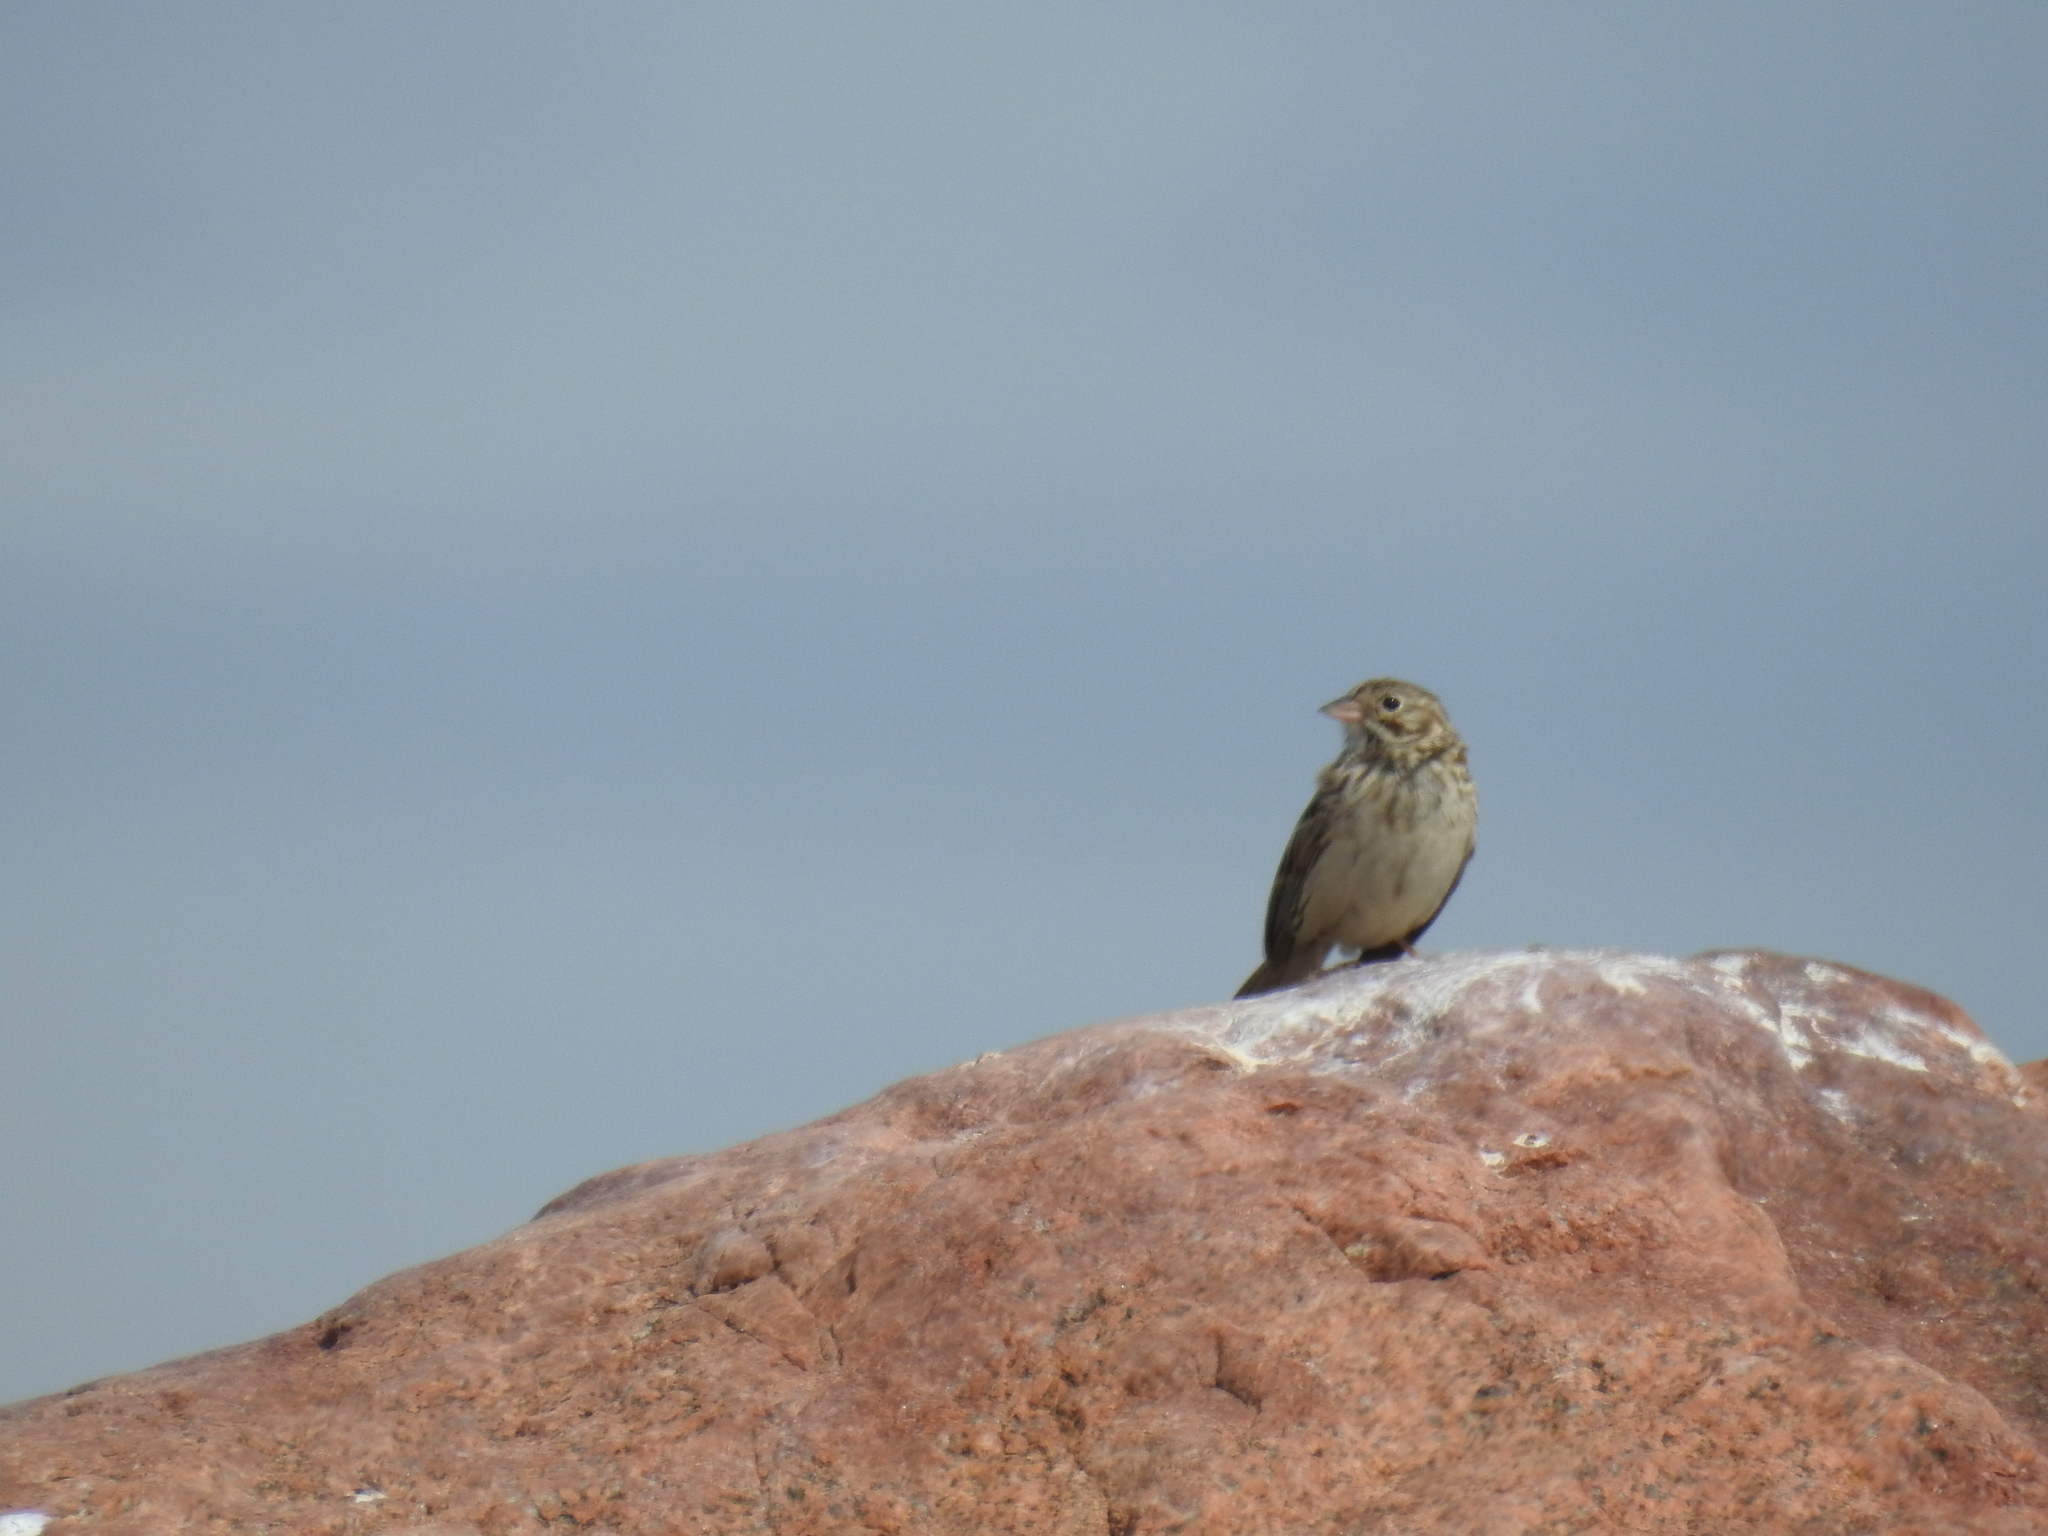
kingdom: Animalia
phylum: Chordata
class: Aves
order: Passeriformes
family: Passerellidae
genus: Pooecetes
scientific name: Pooecetes gramineus
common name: Vesper sparrow
